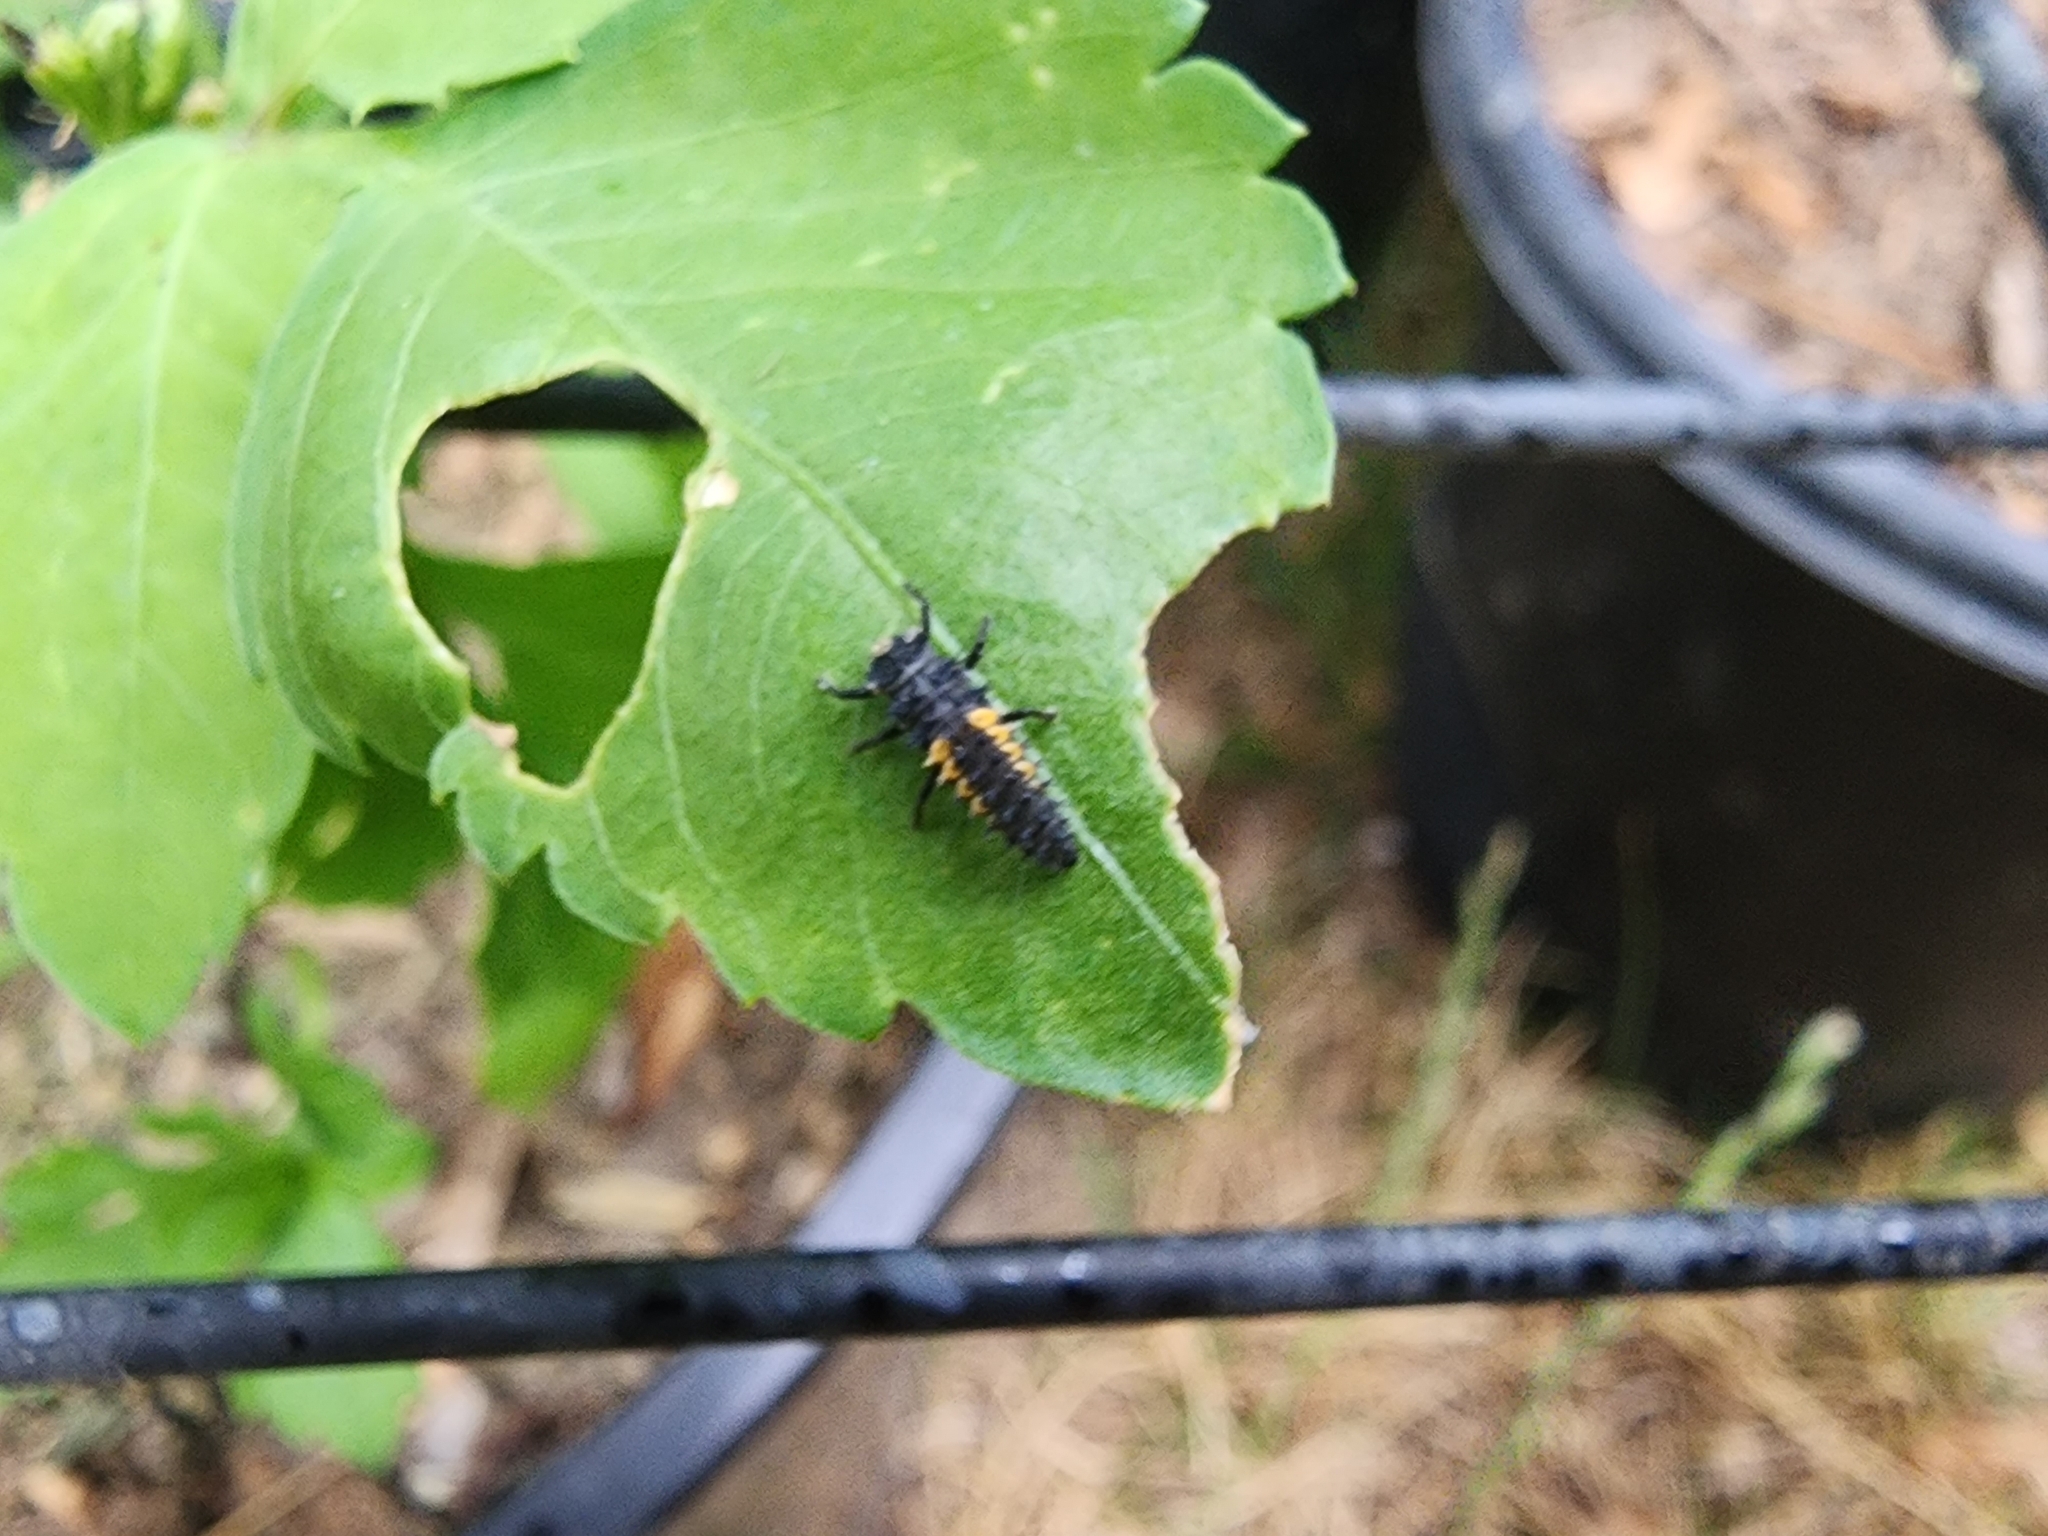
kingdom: Animalia
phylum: Arthropoda
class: Insecta
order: Coleoptera
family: Coccinellidae
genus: Harmonia
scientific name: Harmonia axyridis
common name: Harlequin ladybird
